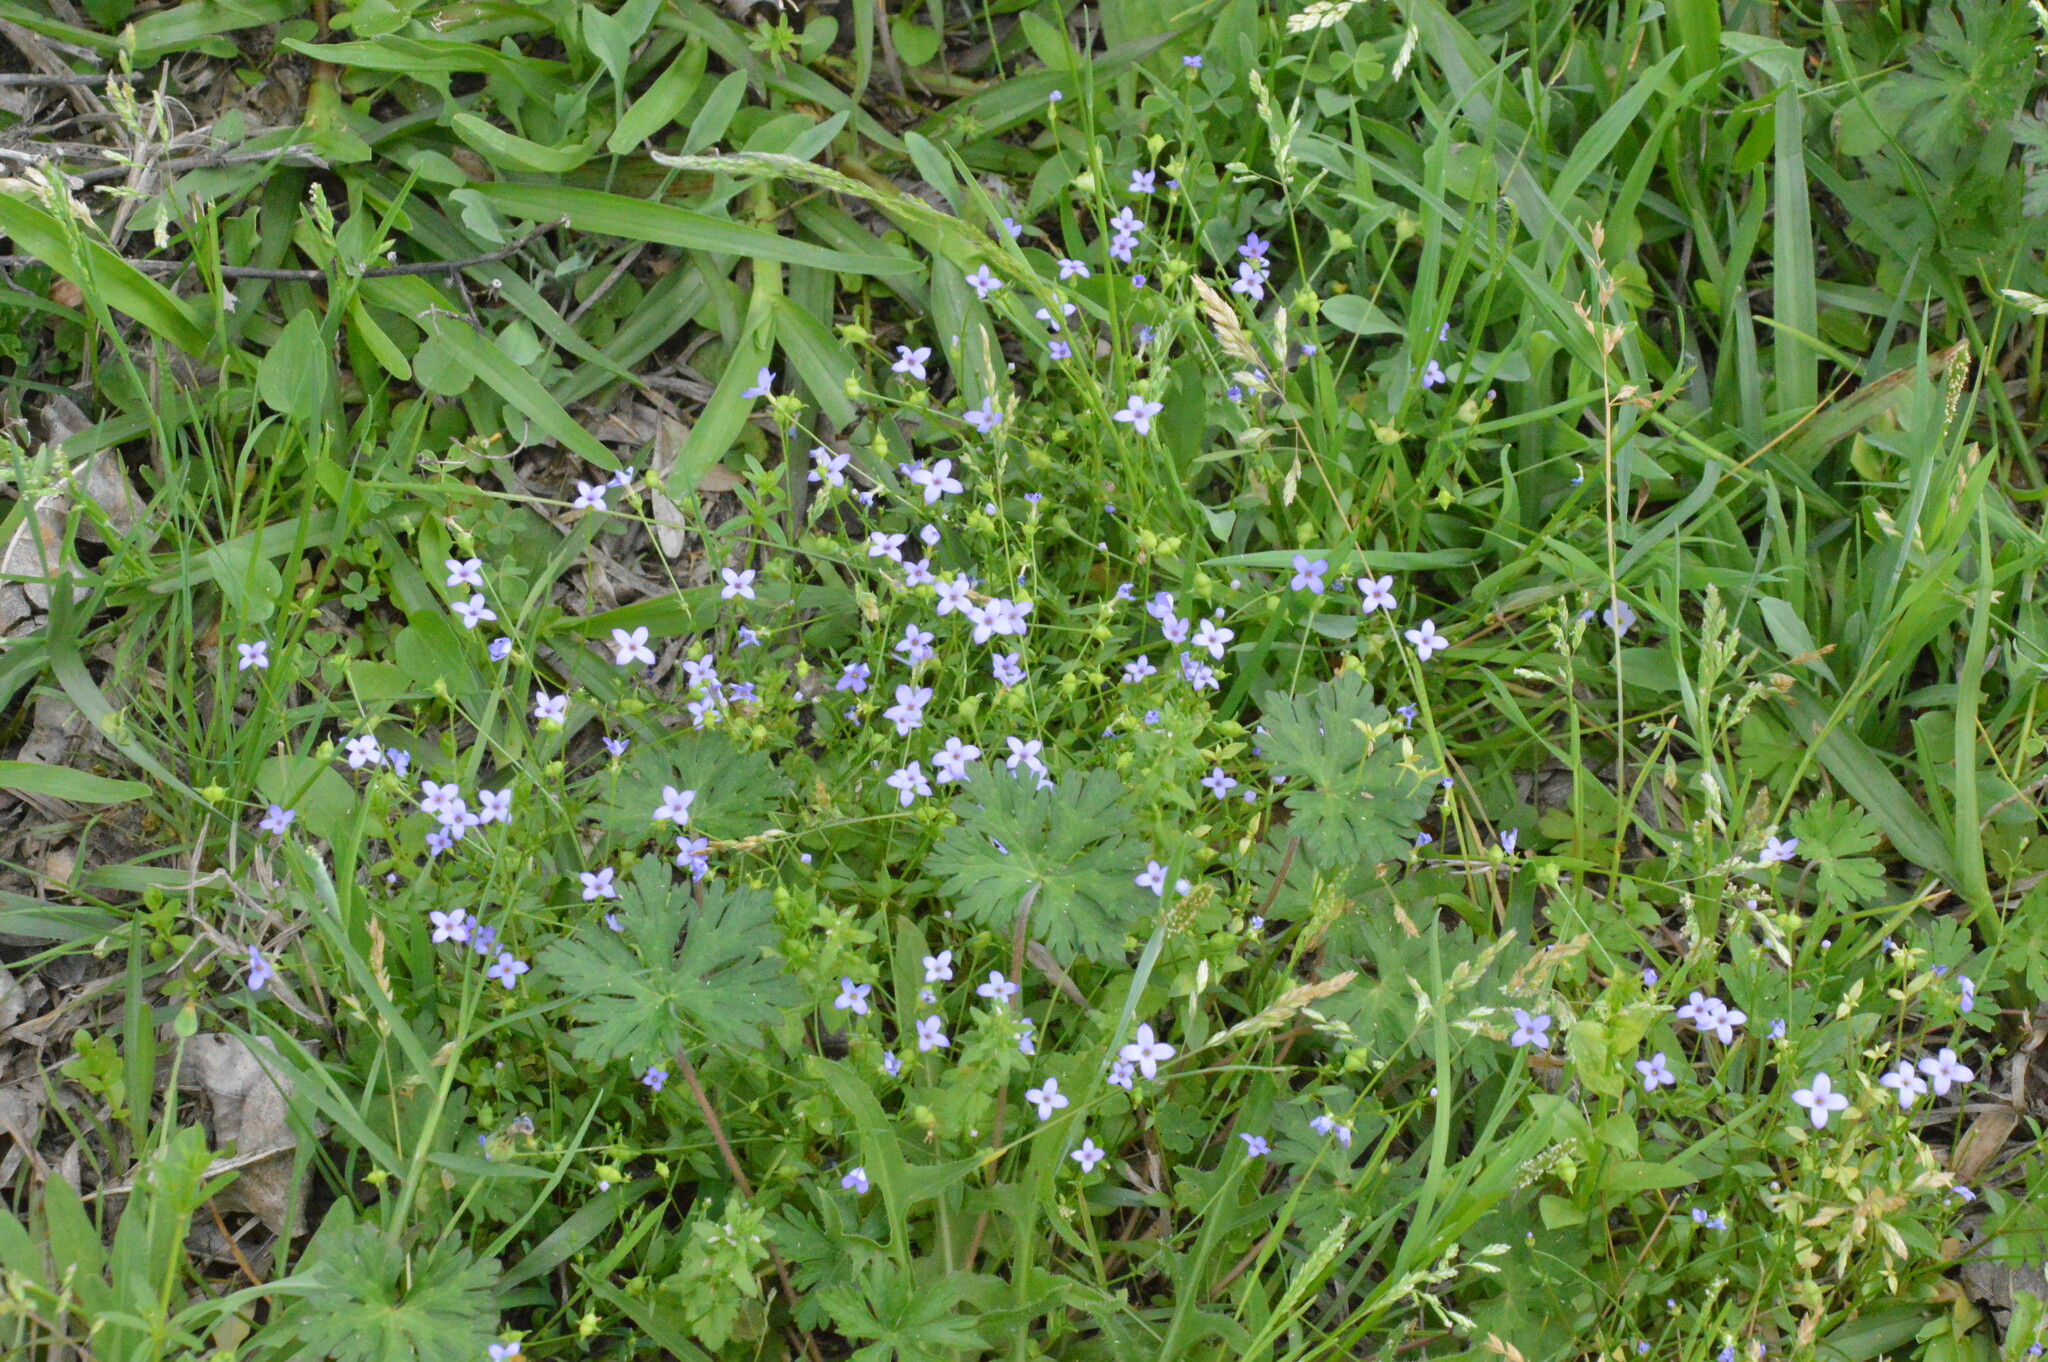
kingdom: Plantae
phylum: Tracheophyta
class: Magnoliopsida
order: Gentianales
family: Rubiaceae
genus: Houstonia
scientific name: Houstonia pusilla
